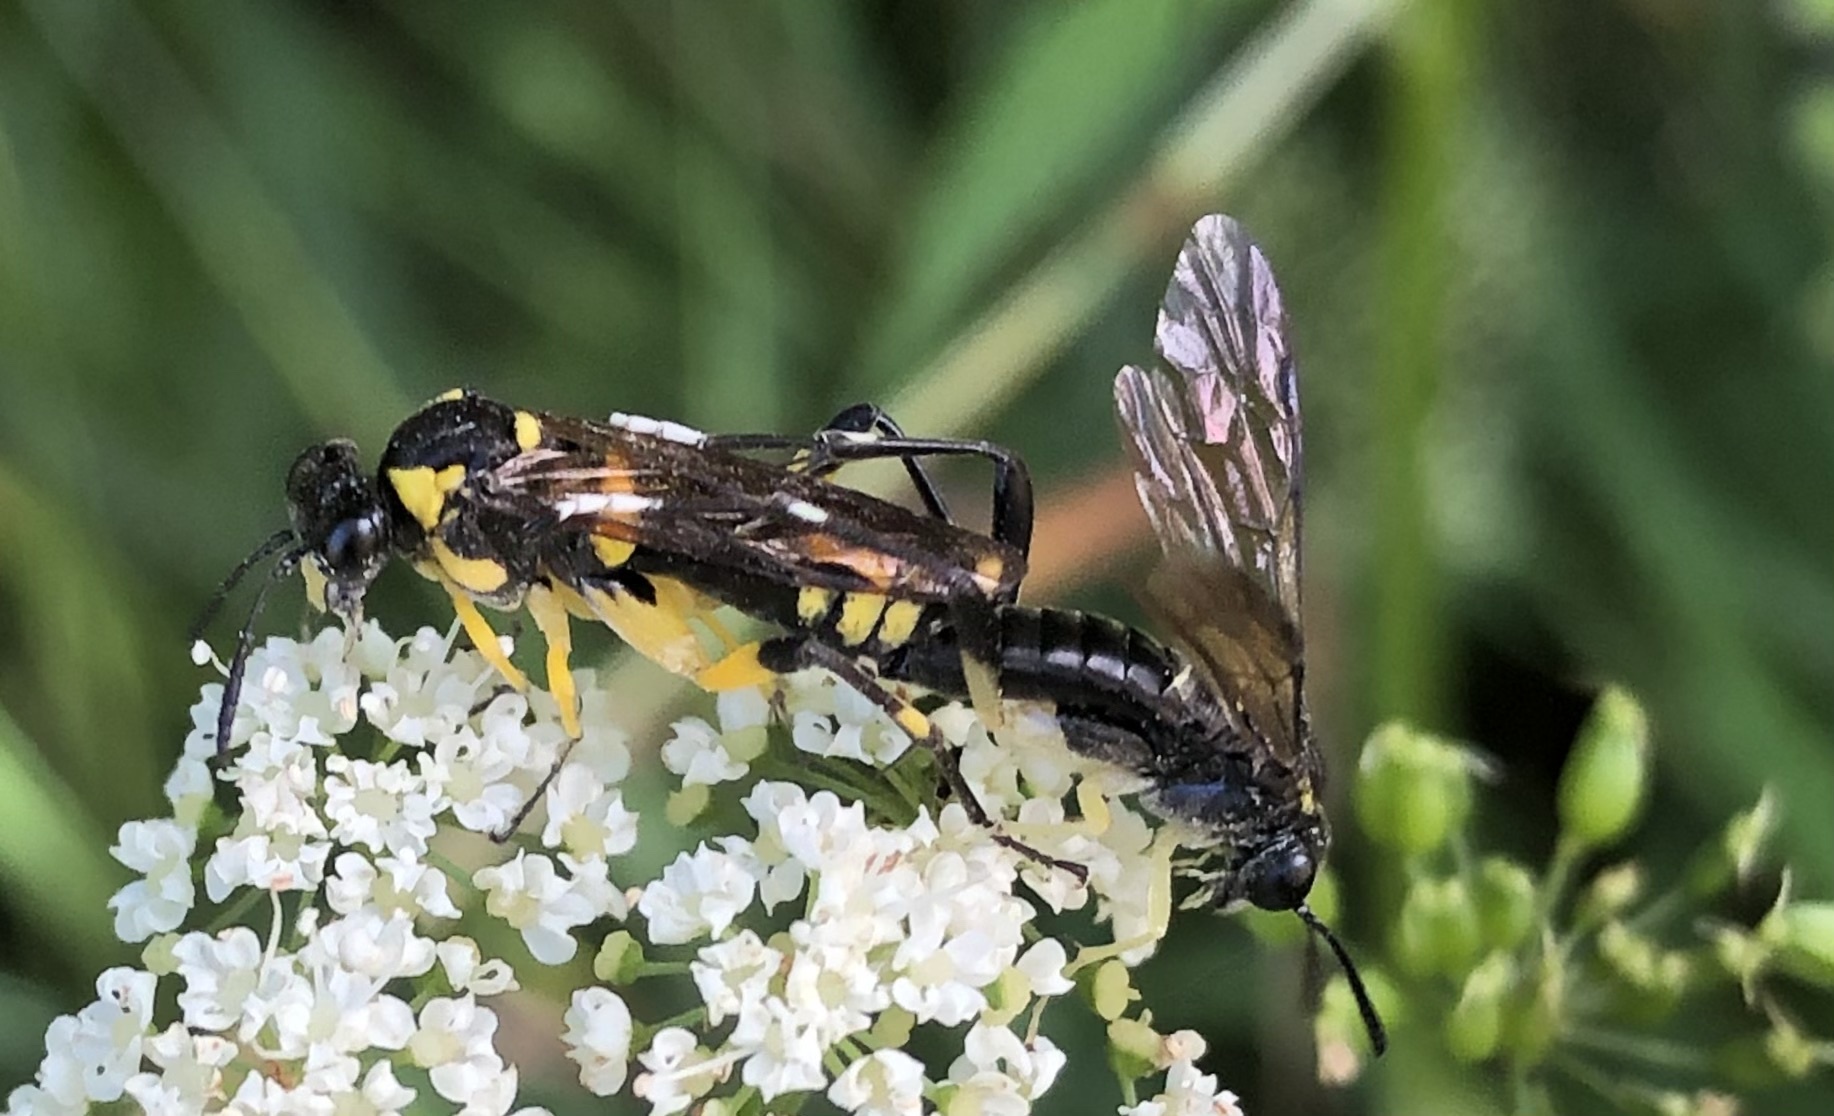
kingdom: Animalia
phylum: Arthropoda
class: Insecta
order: Hymenoptera
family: Tenthredinidae
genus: Macrophya
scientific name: Macrophya montana
